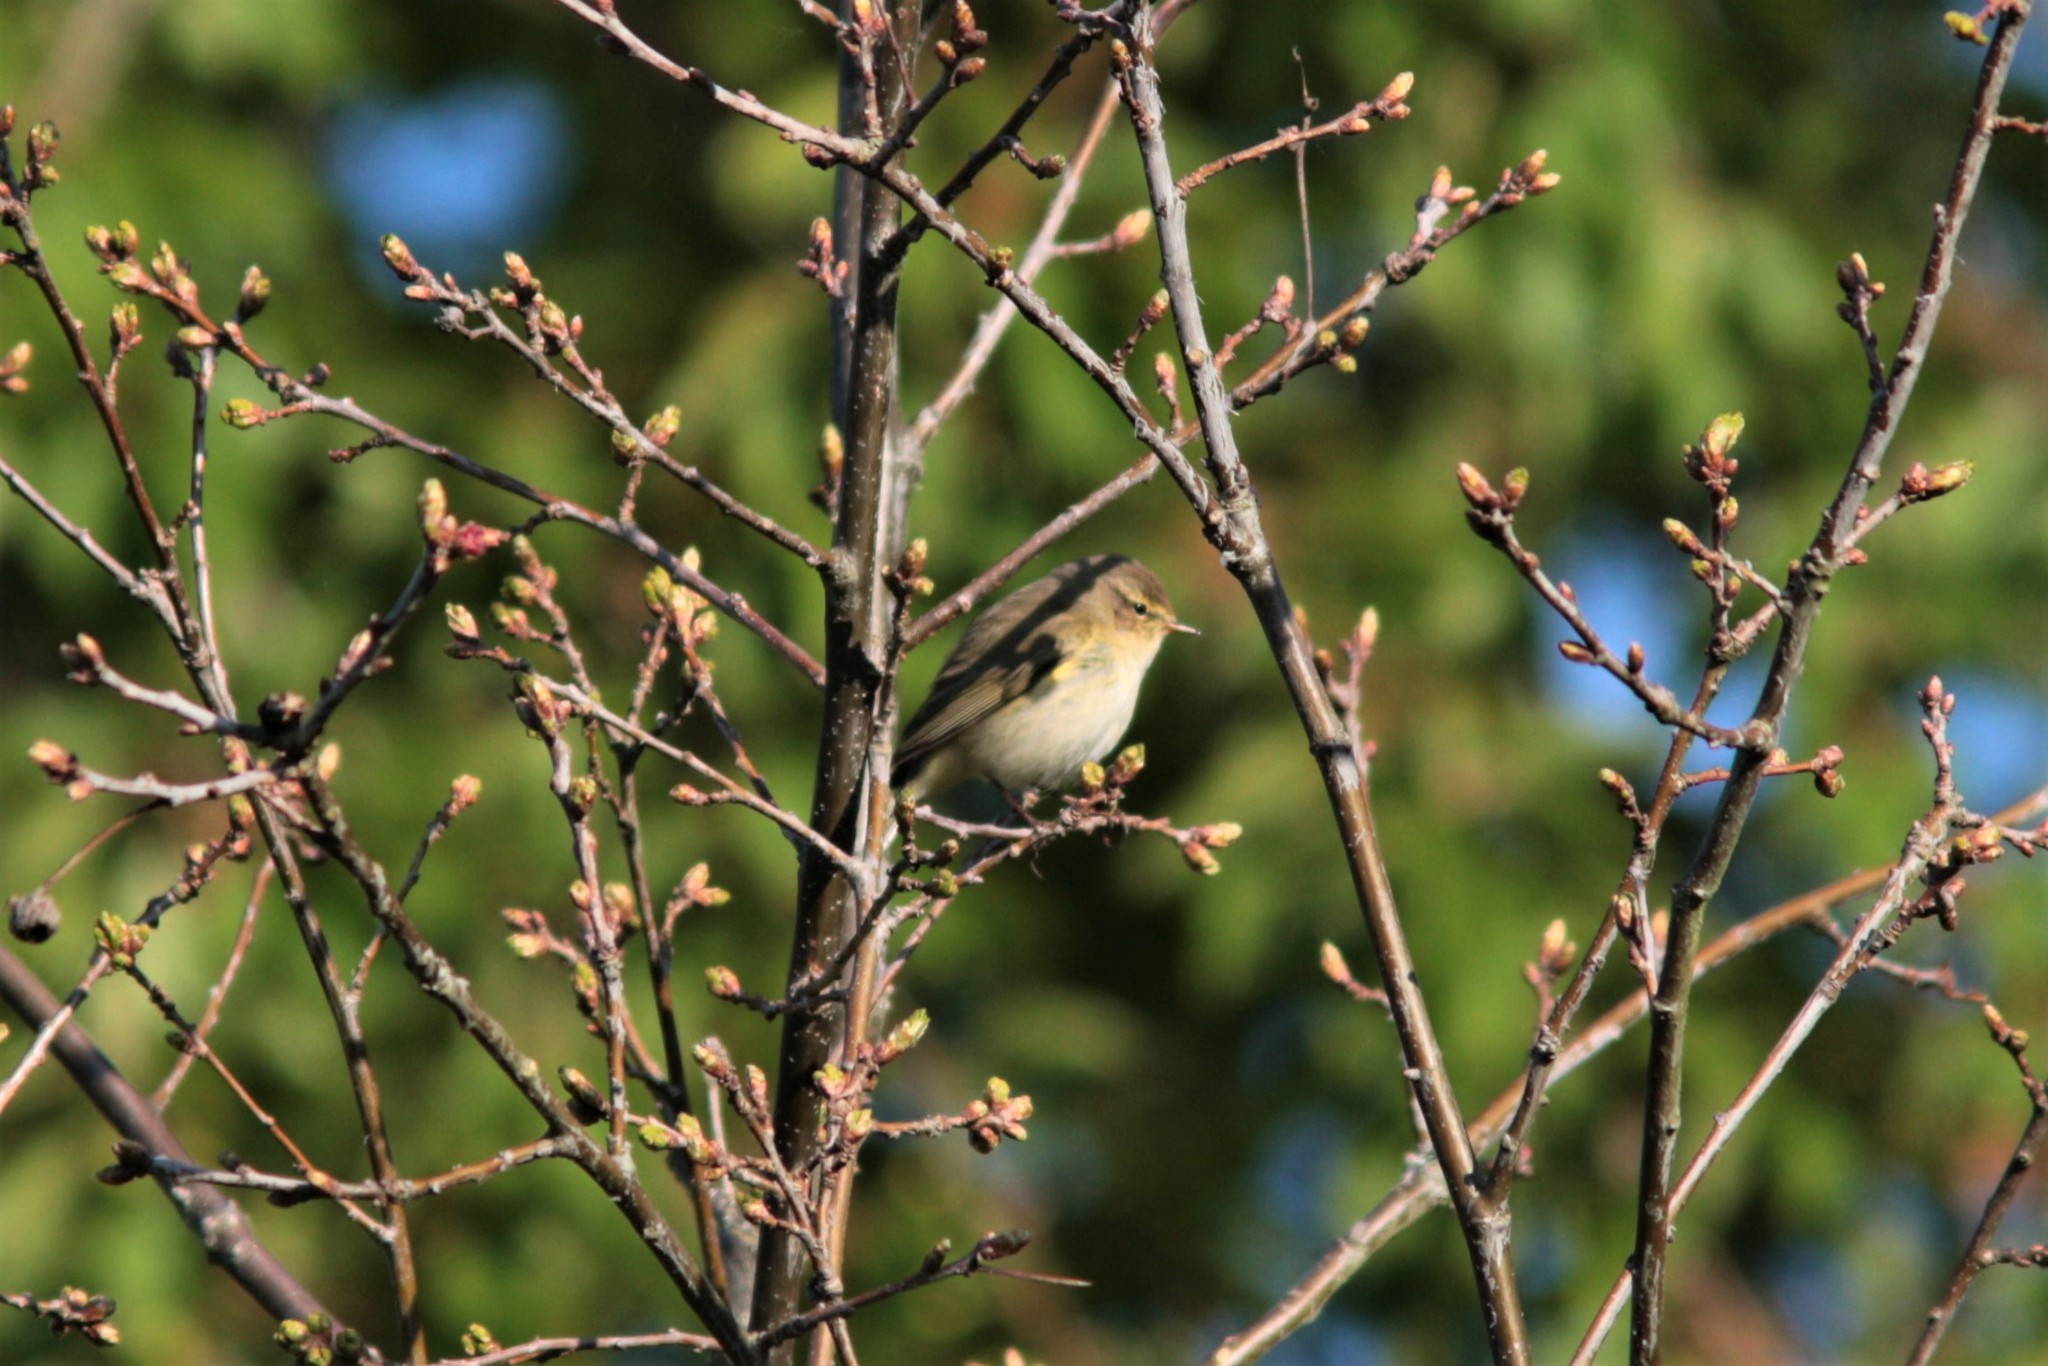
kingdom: Animalia
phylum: Chordata
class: Aves
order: Passeriformes
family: Phylloscopidae
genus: Phylloscopus
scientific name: Phylloscopus collybita
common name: Common chiffchaff
